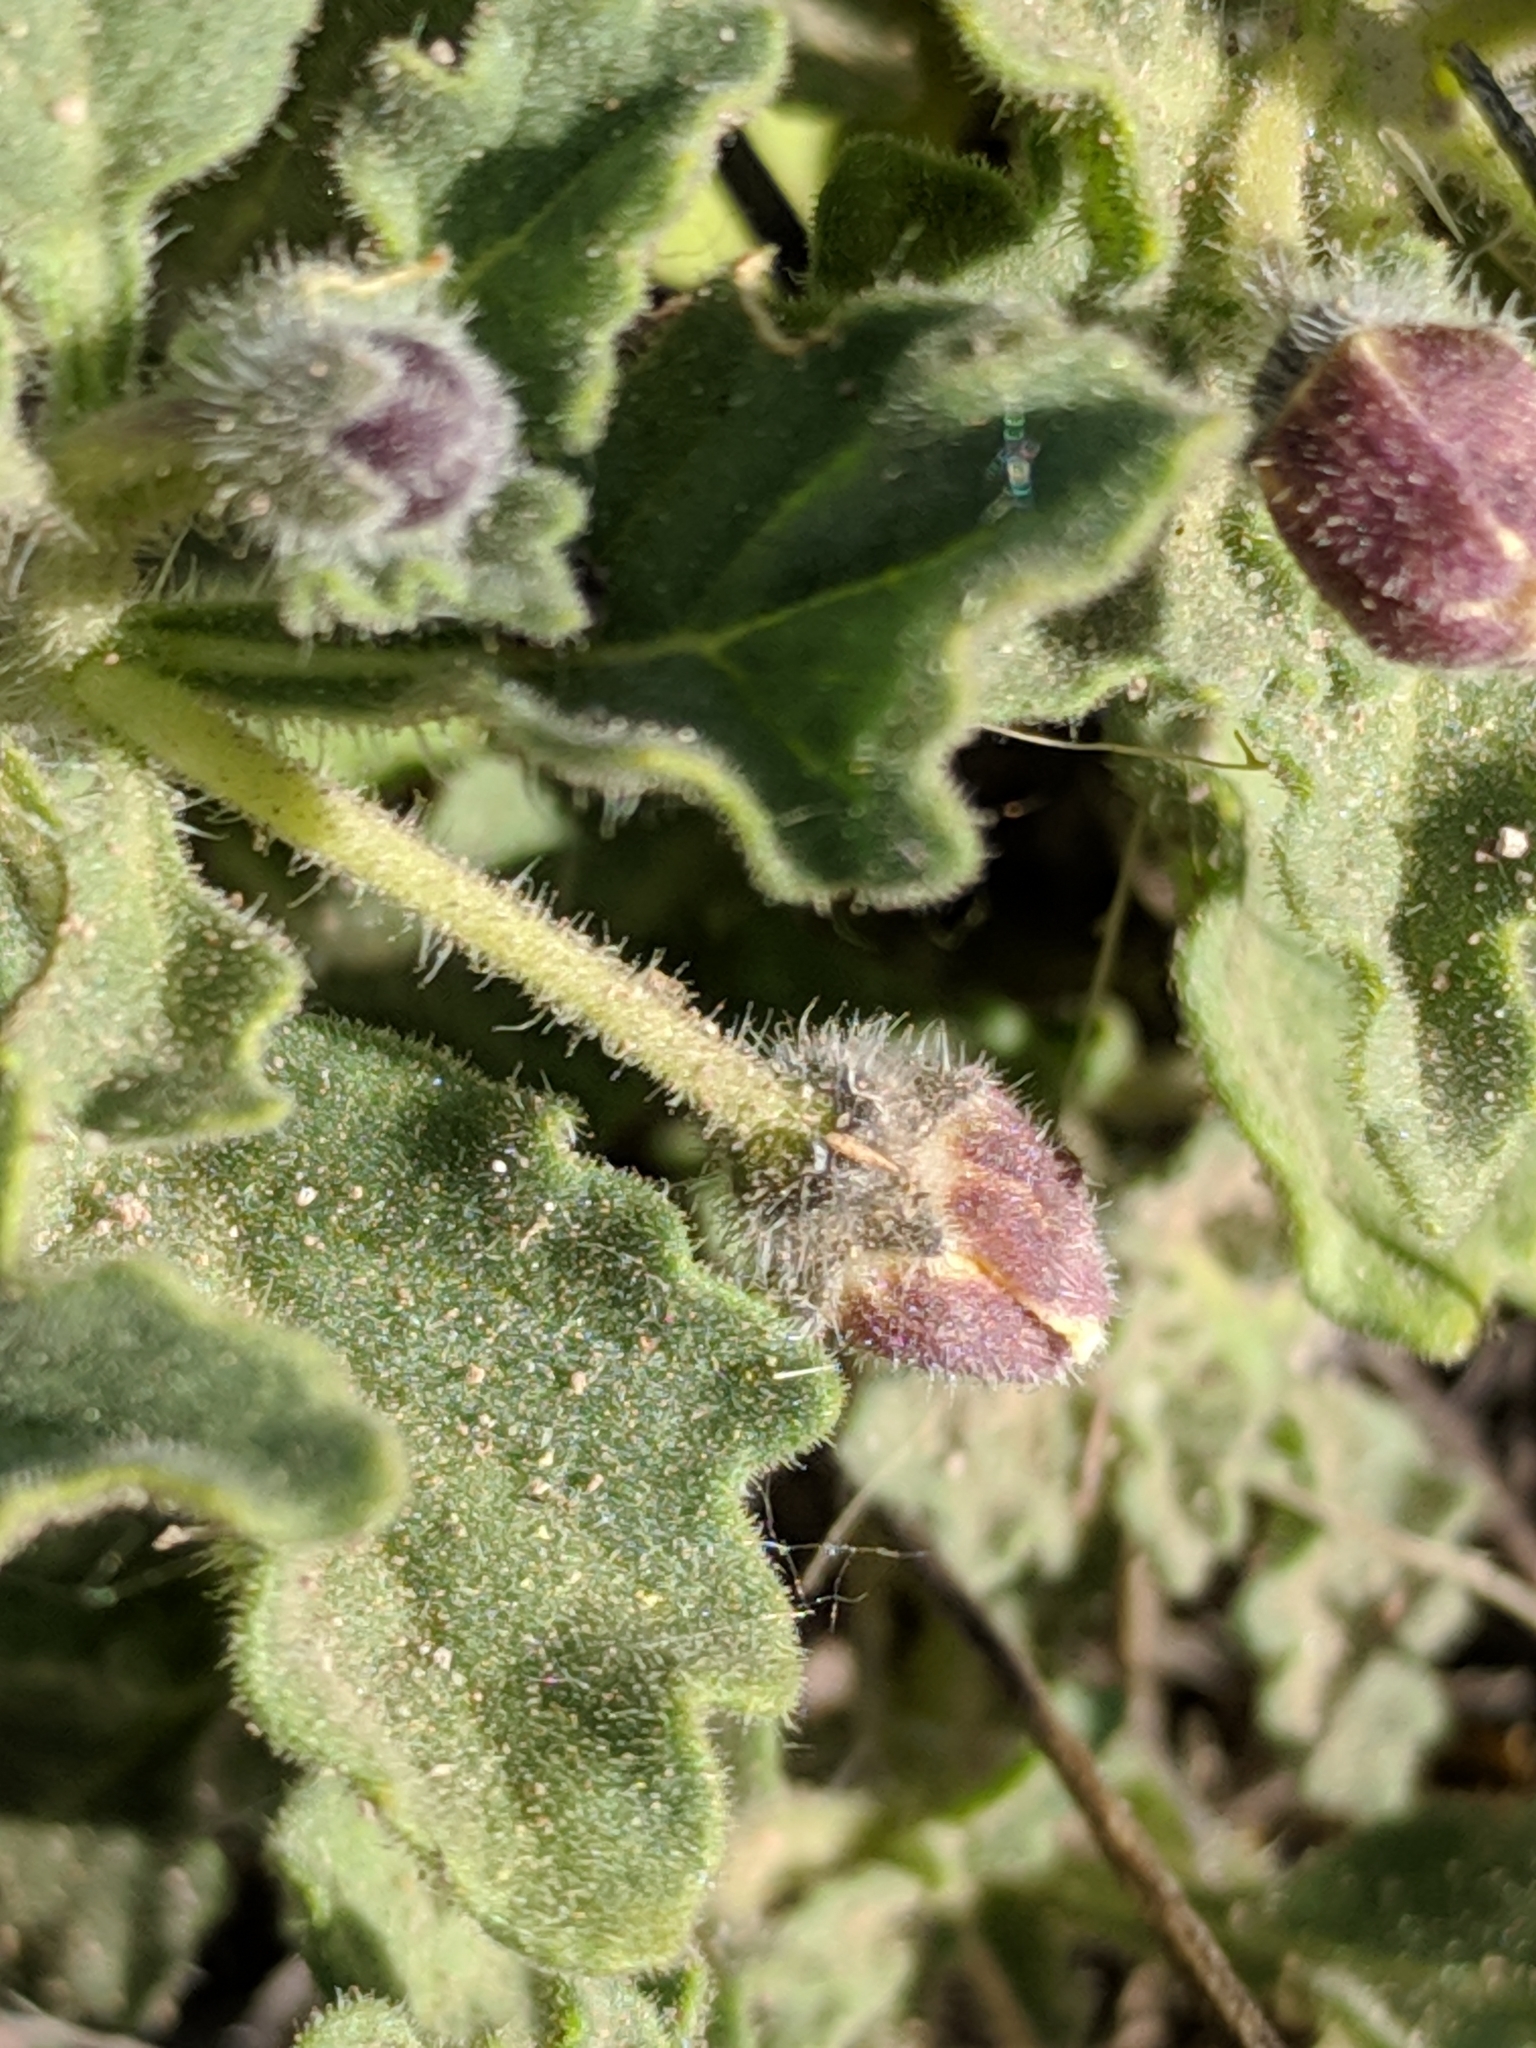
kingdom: Plantae
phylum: Tracheophyta
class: Magnoliopsida
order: Solanales
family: Solanaceae
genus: Chamaesaracha
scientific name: Chamaesaracha villosa
